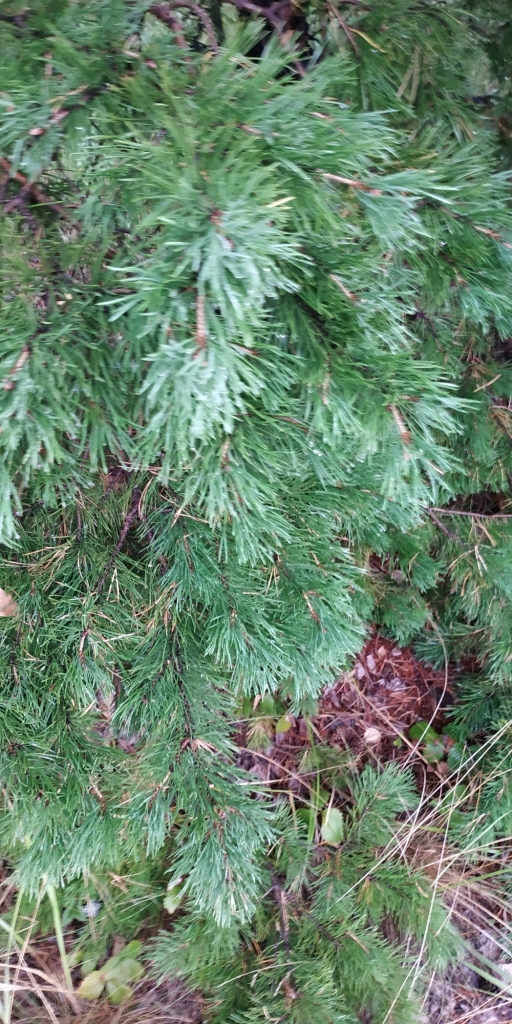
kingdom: Plantae
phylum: Tracheophyta
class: Pinopsida
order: Pinales
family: Pinaceae
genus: Pinus
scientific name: Pinus sylvestris
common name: Scots pine
